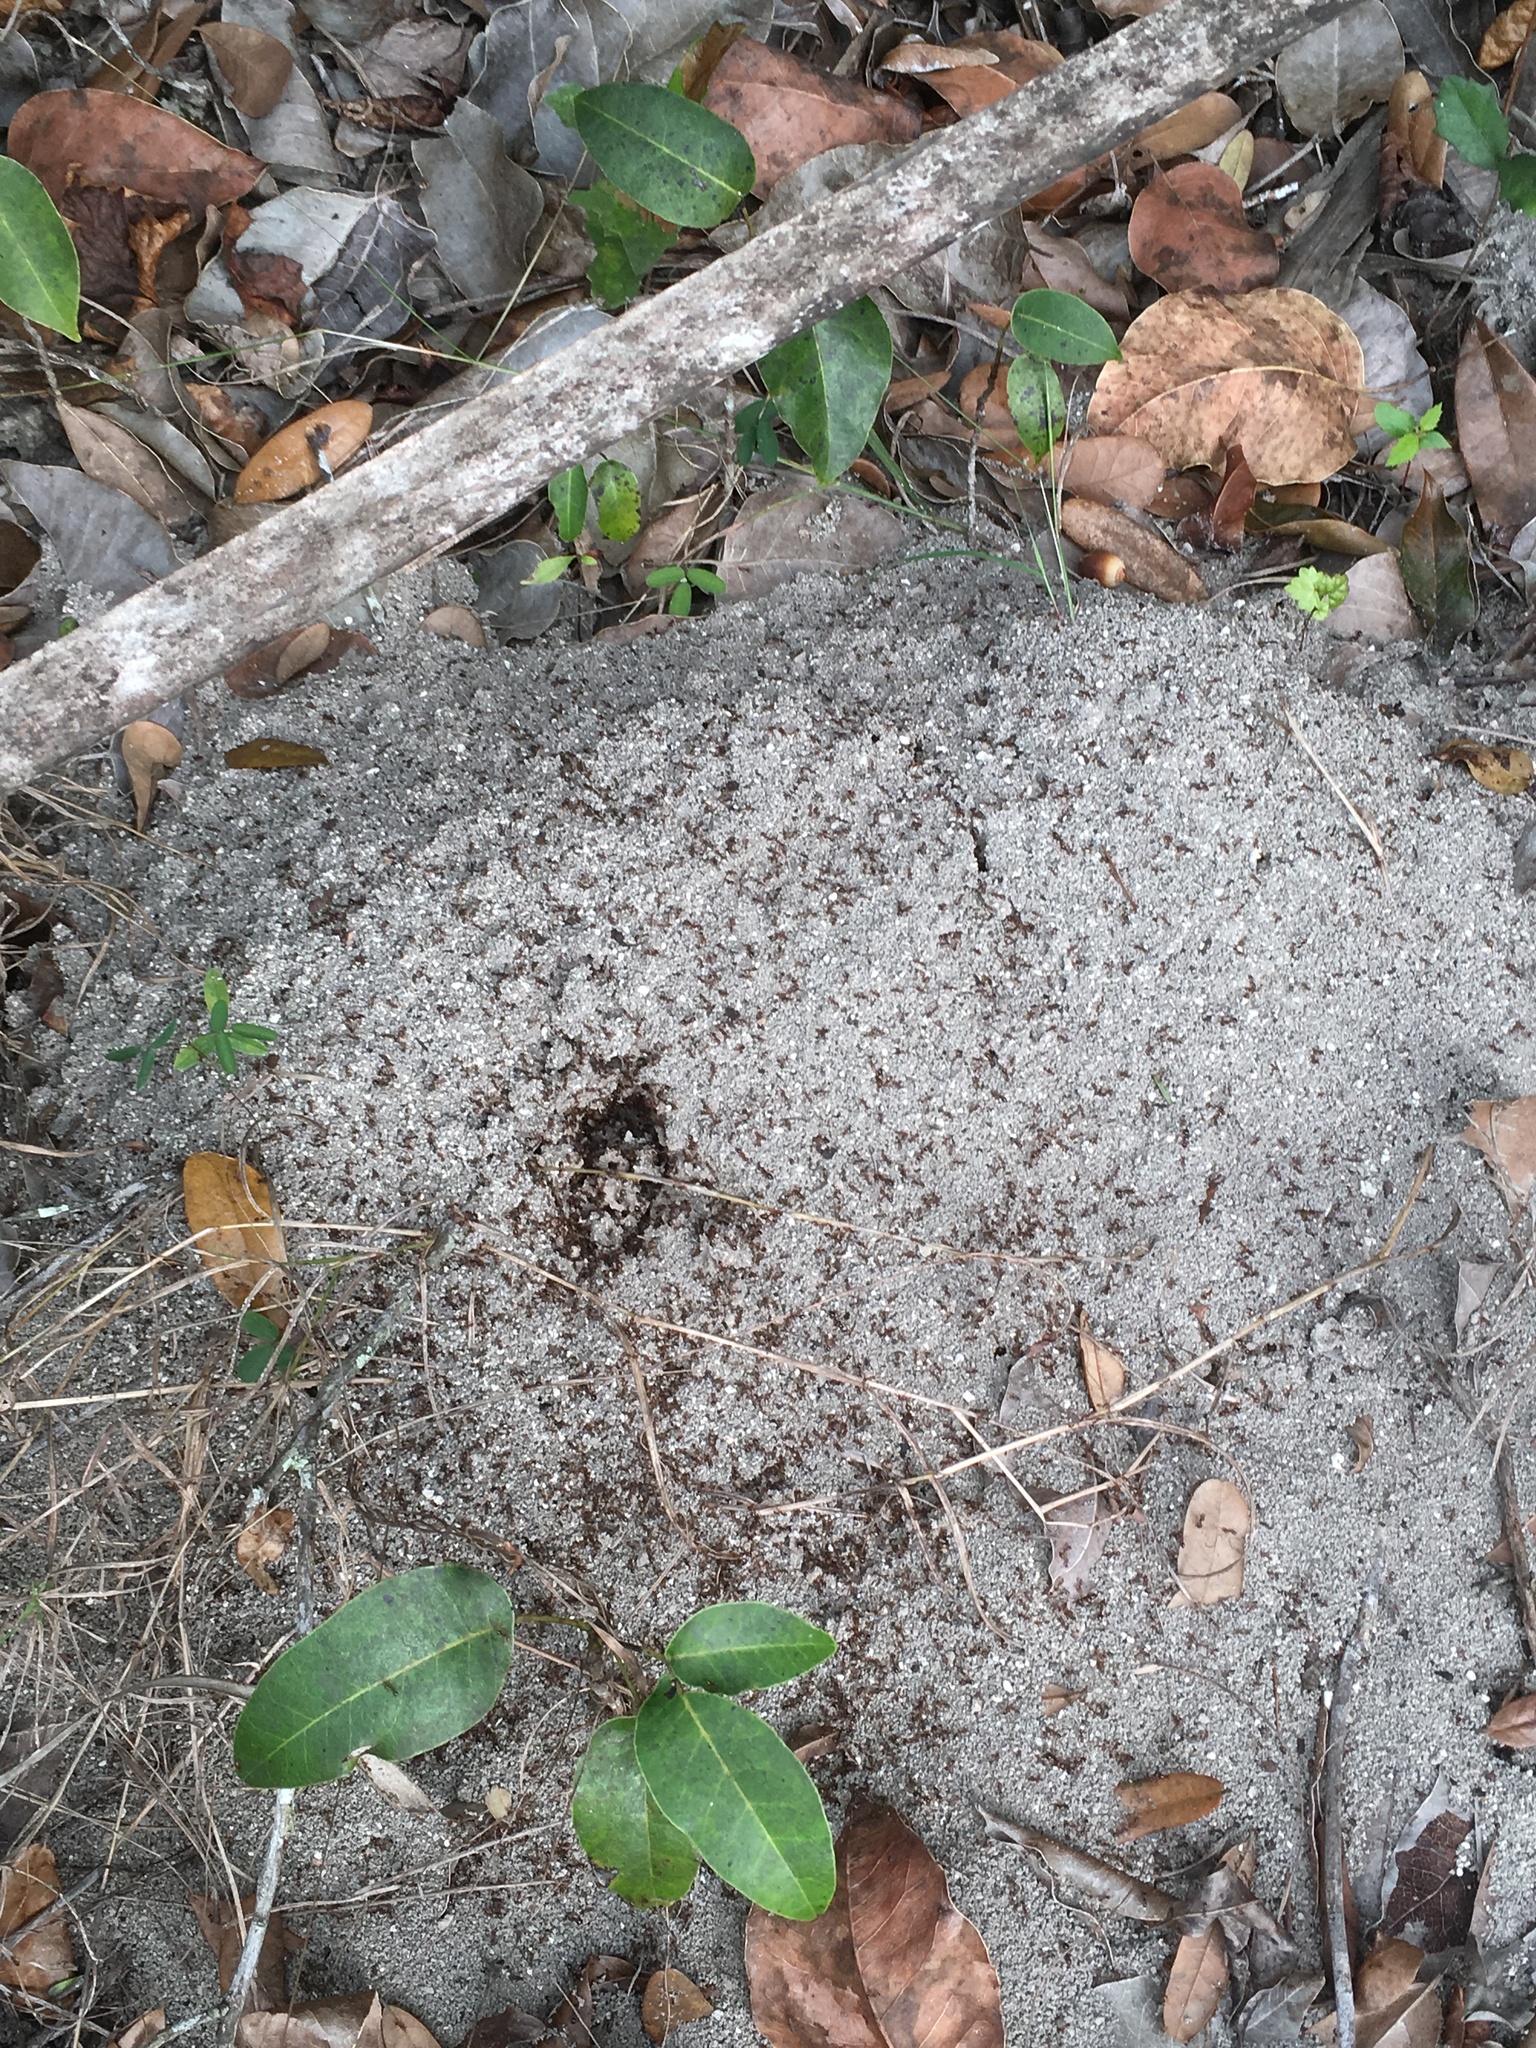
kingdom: Animalia
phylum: Arthropoda
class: Insecta
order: Hymenoptera
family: Formicidae
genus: Solenopsis
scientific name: Solenopsis invicta
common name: Red imported fire ant
